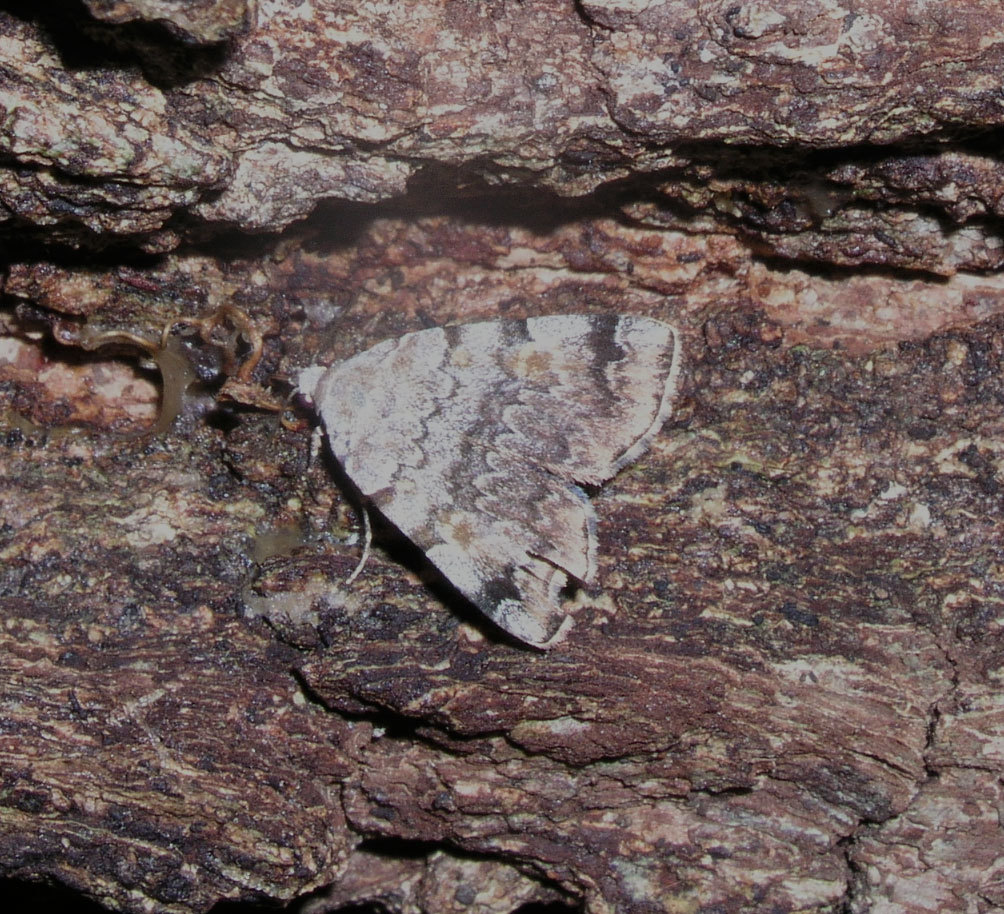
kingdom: Animalia
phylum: Arthropoda
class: Insecta
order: Lepidoptera
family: Erebidae
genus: Idia
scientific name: Idia americalis
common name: American idia moth
